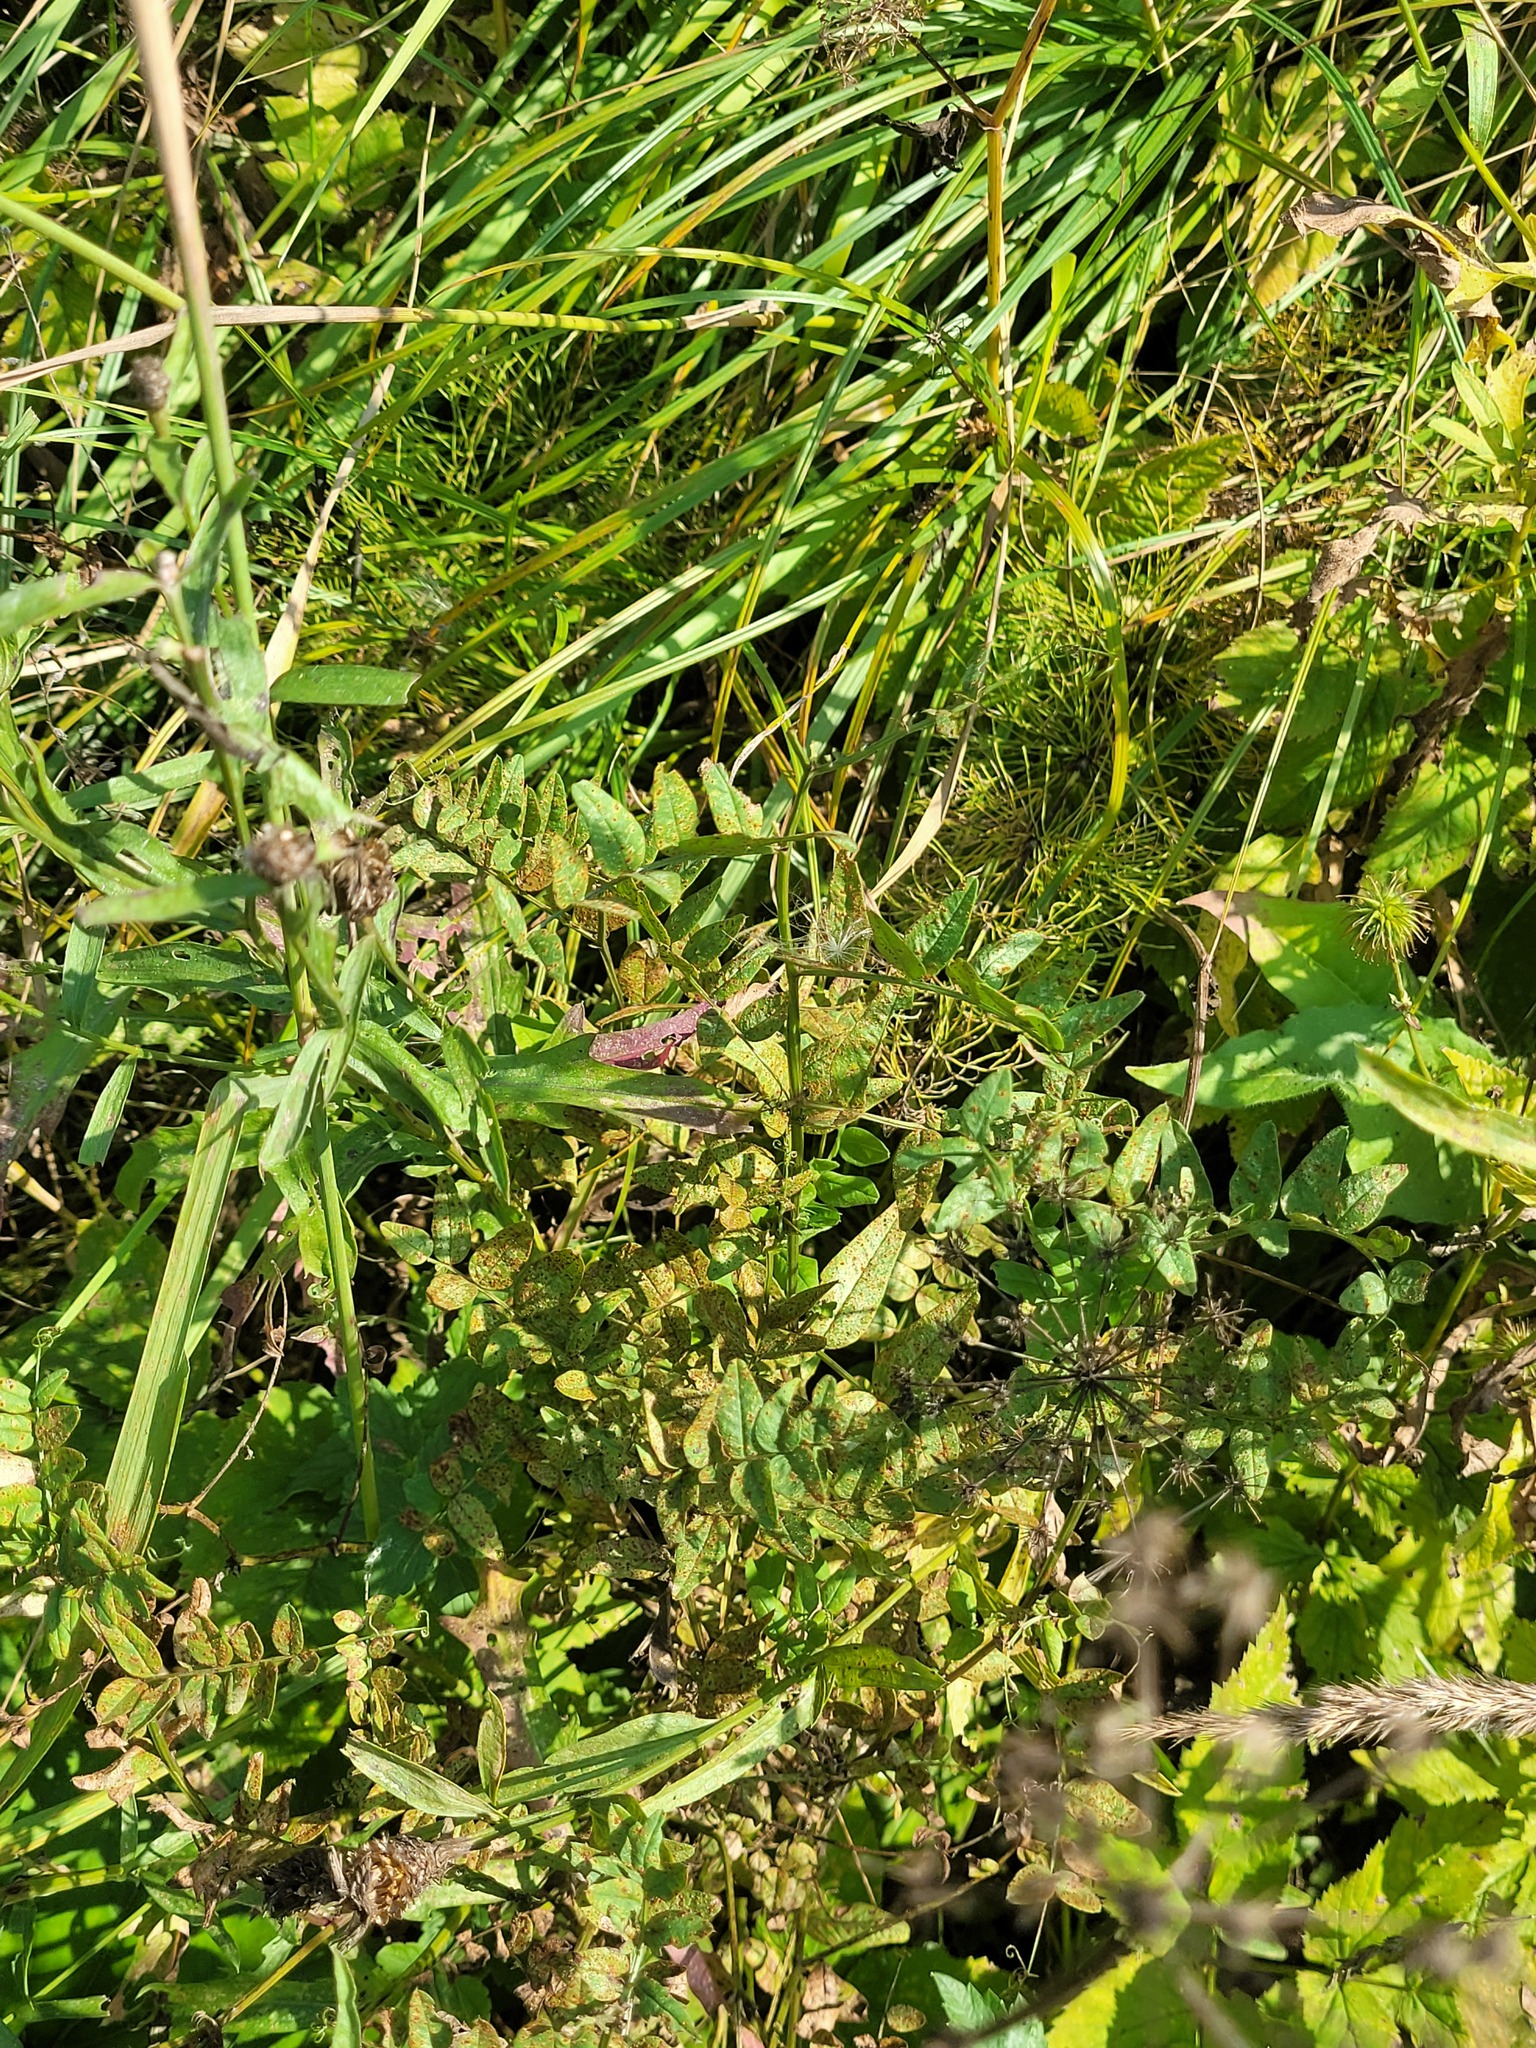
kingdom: Plantae
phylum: Tracheophyta
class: Magnoliopsida
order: Fabales
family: Fabaceae
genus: Vicia
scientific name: Vicia sepium
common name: Bush vetch
